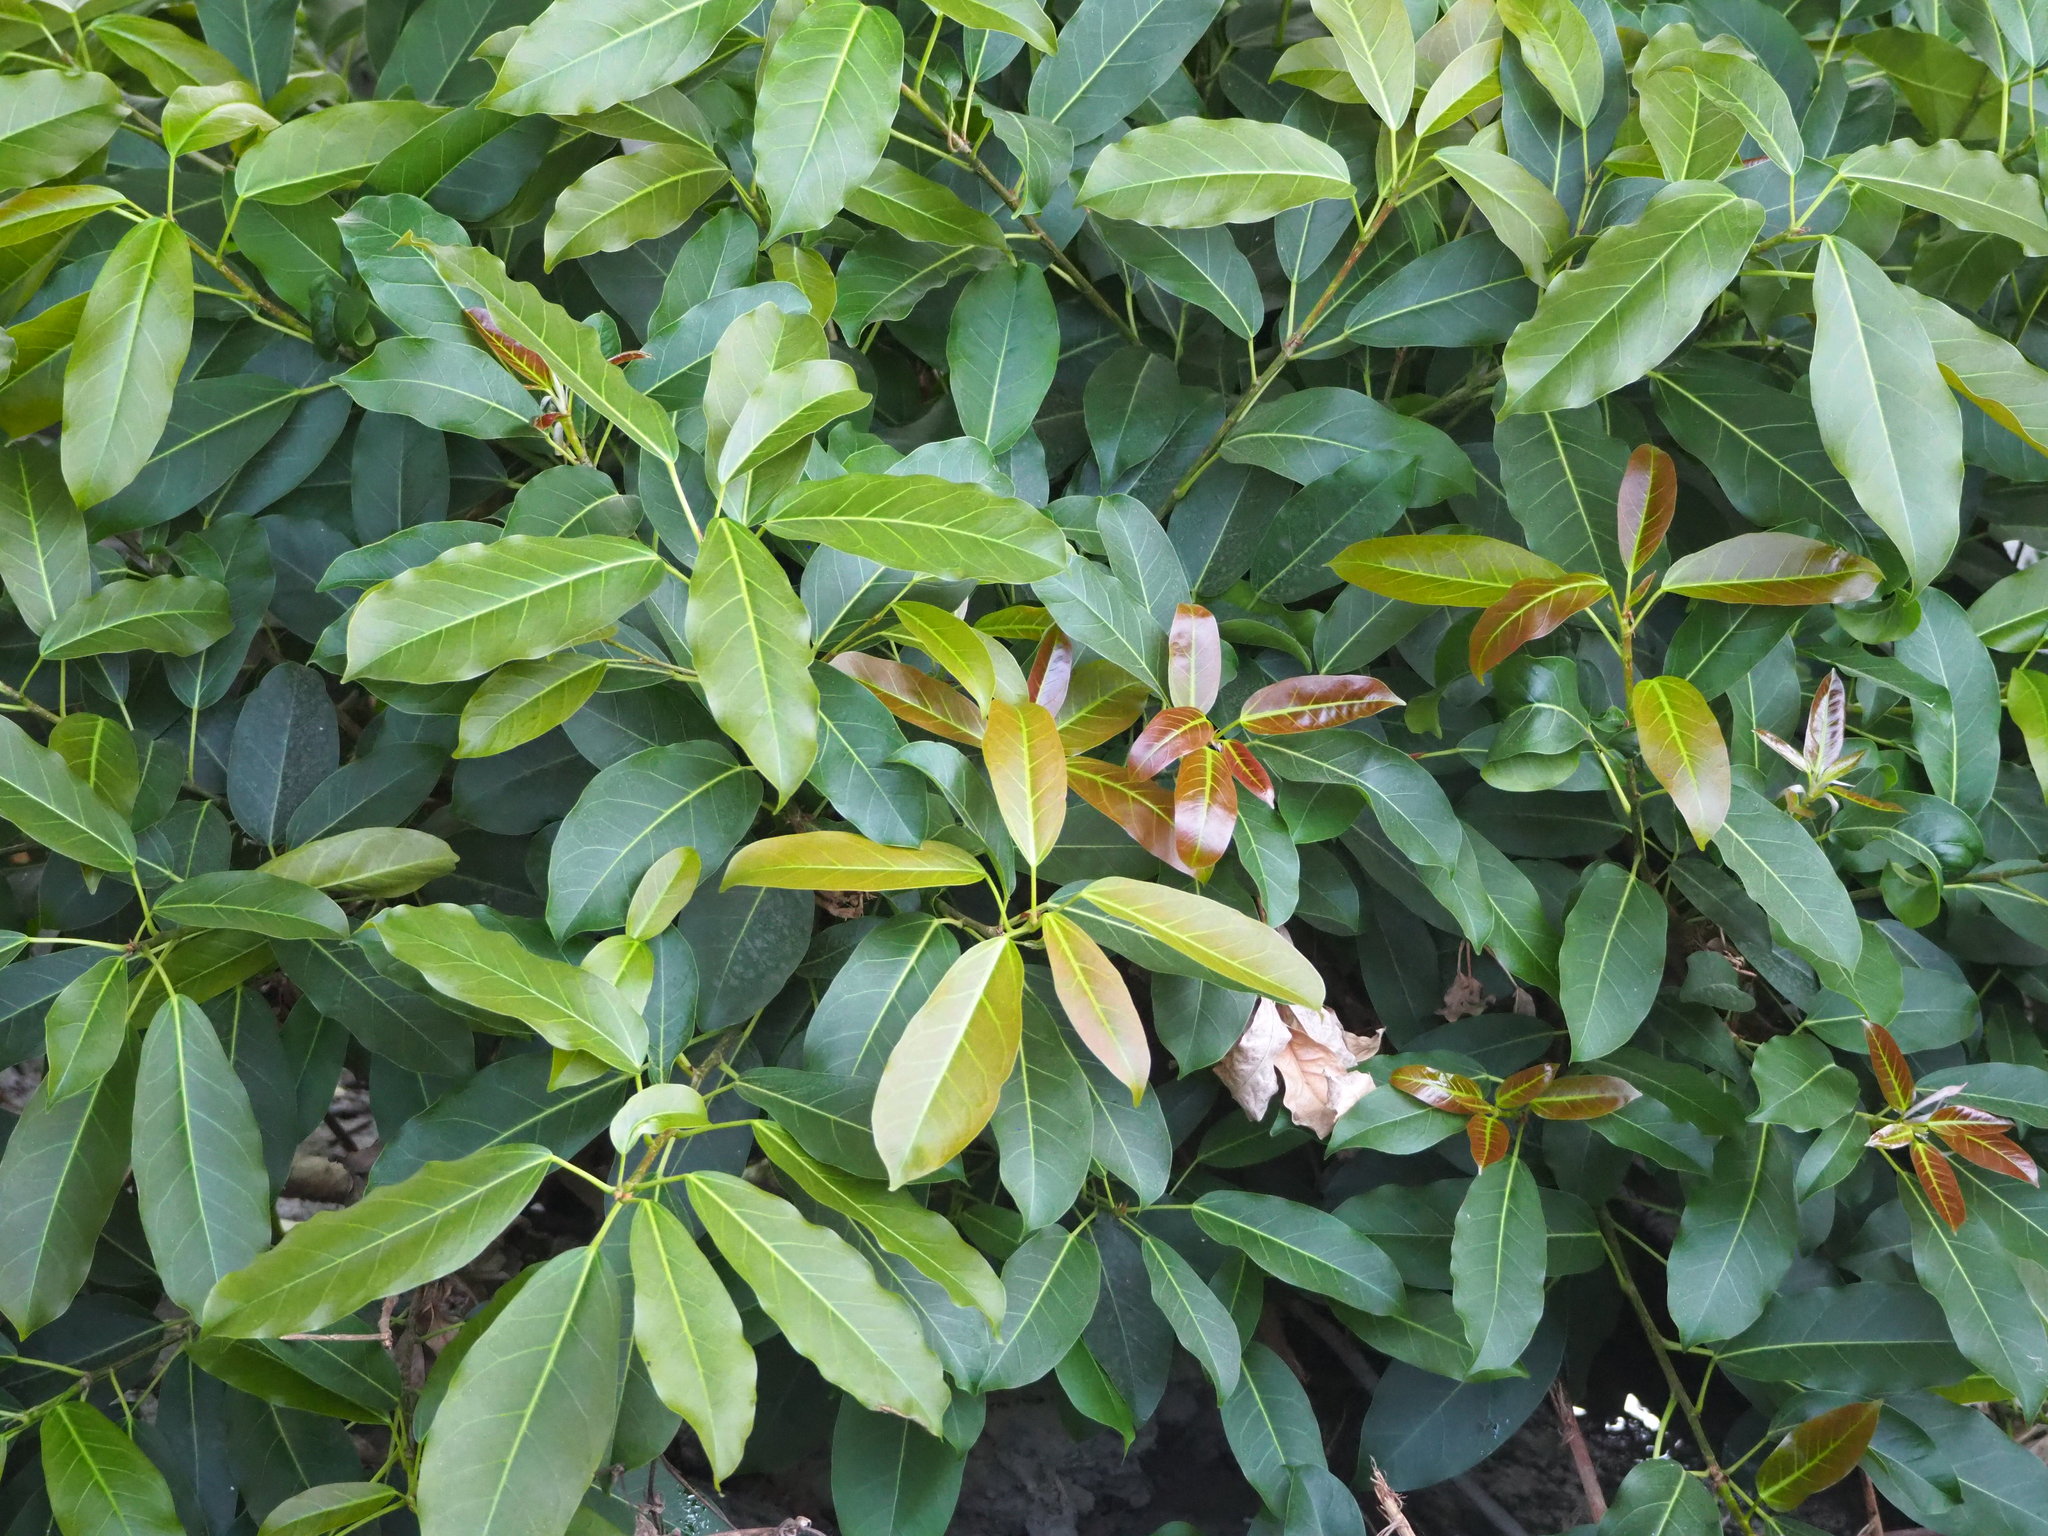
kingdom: Plantae
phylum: Tracheophyta
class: Magnoliopsida
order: Rosales
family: Moraceae
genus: Ficus
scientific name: Ficus subpisocarpa
